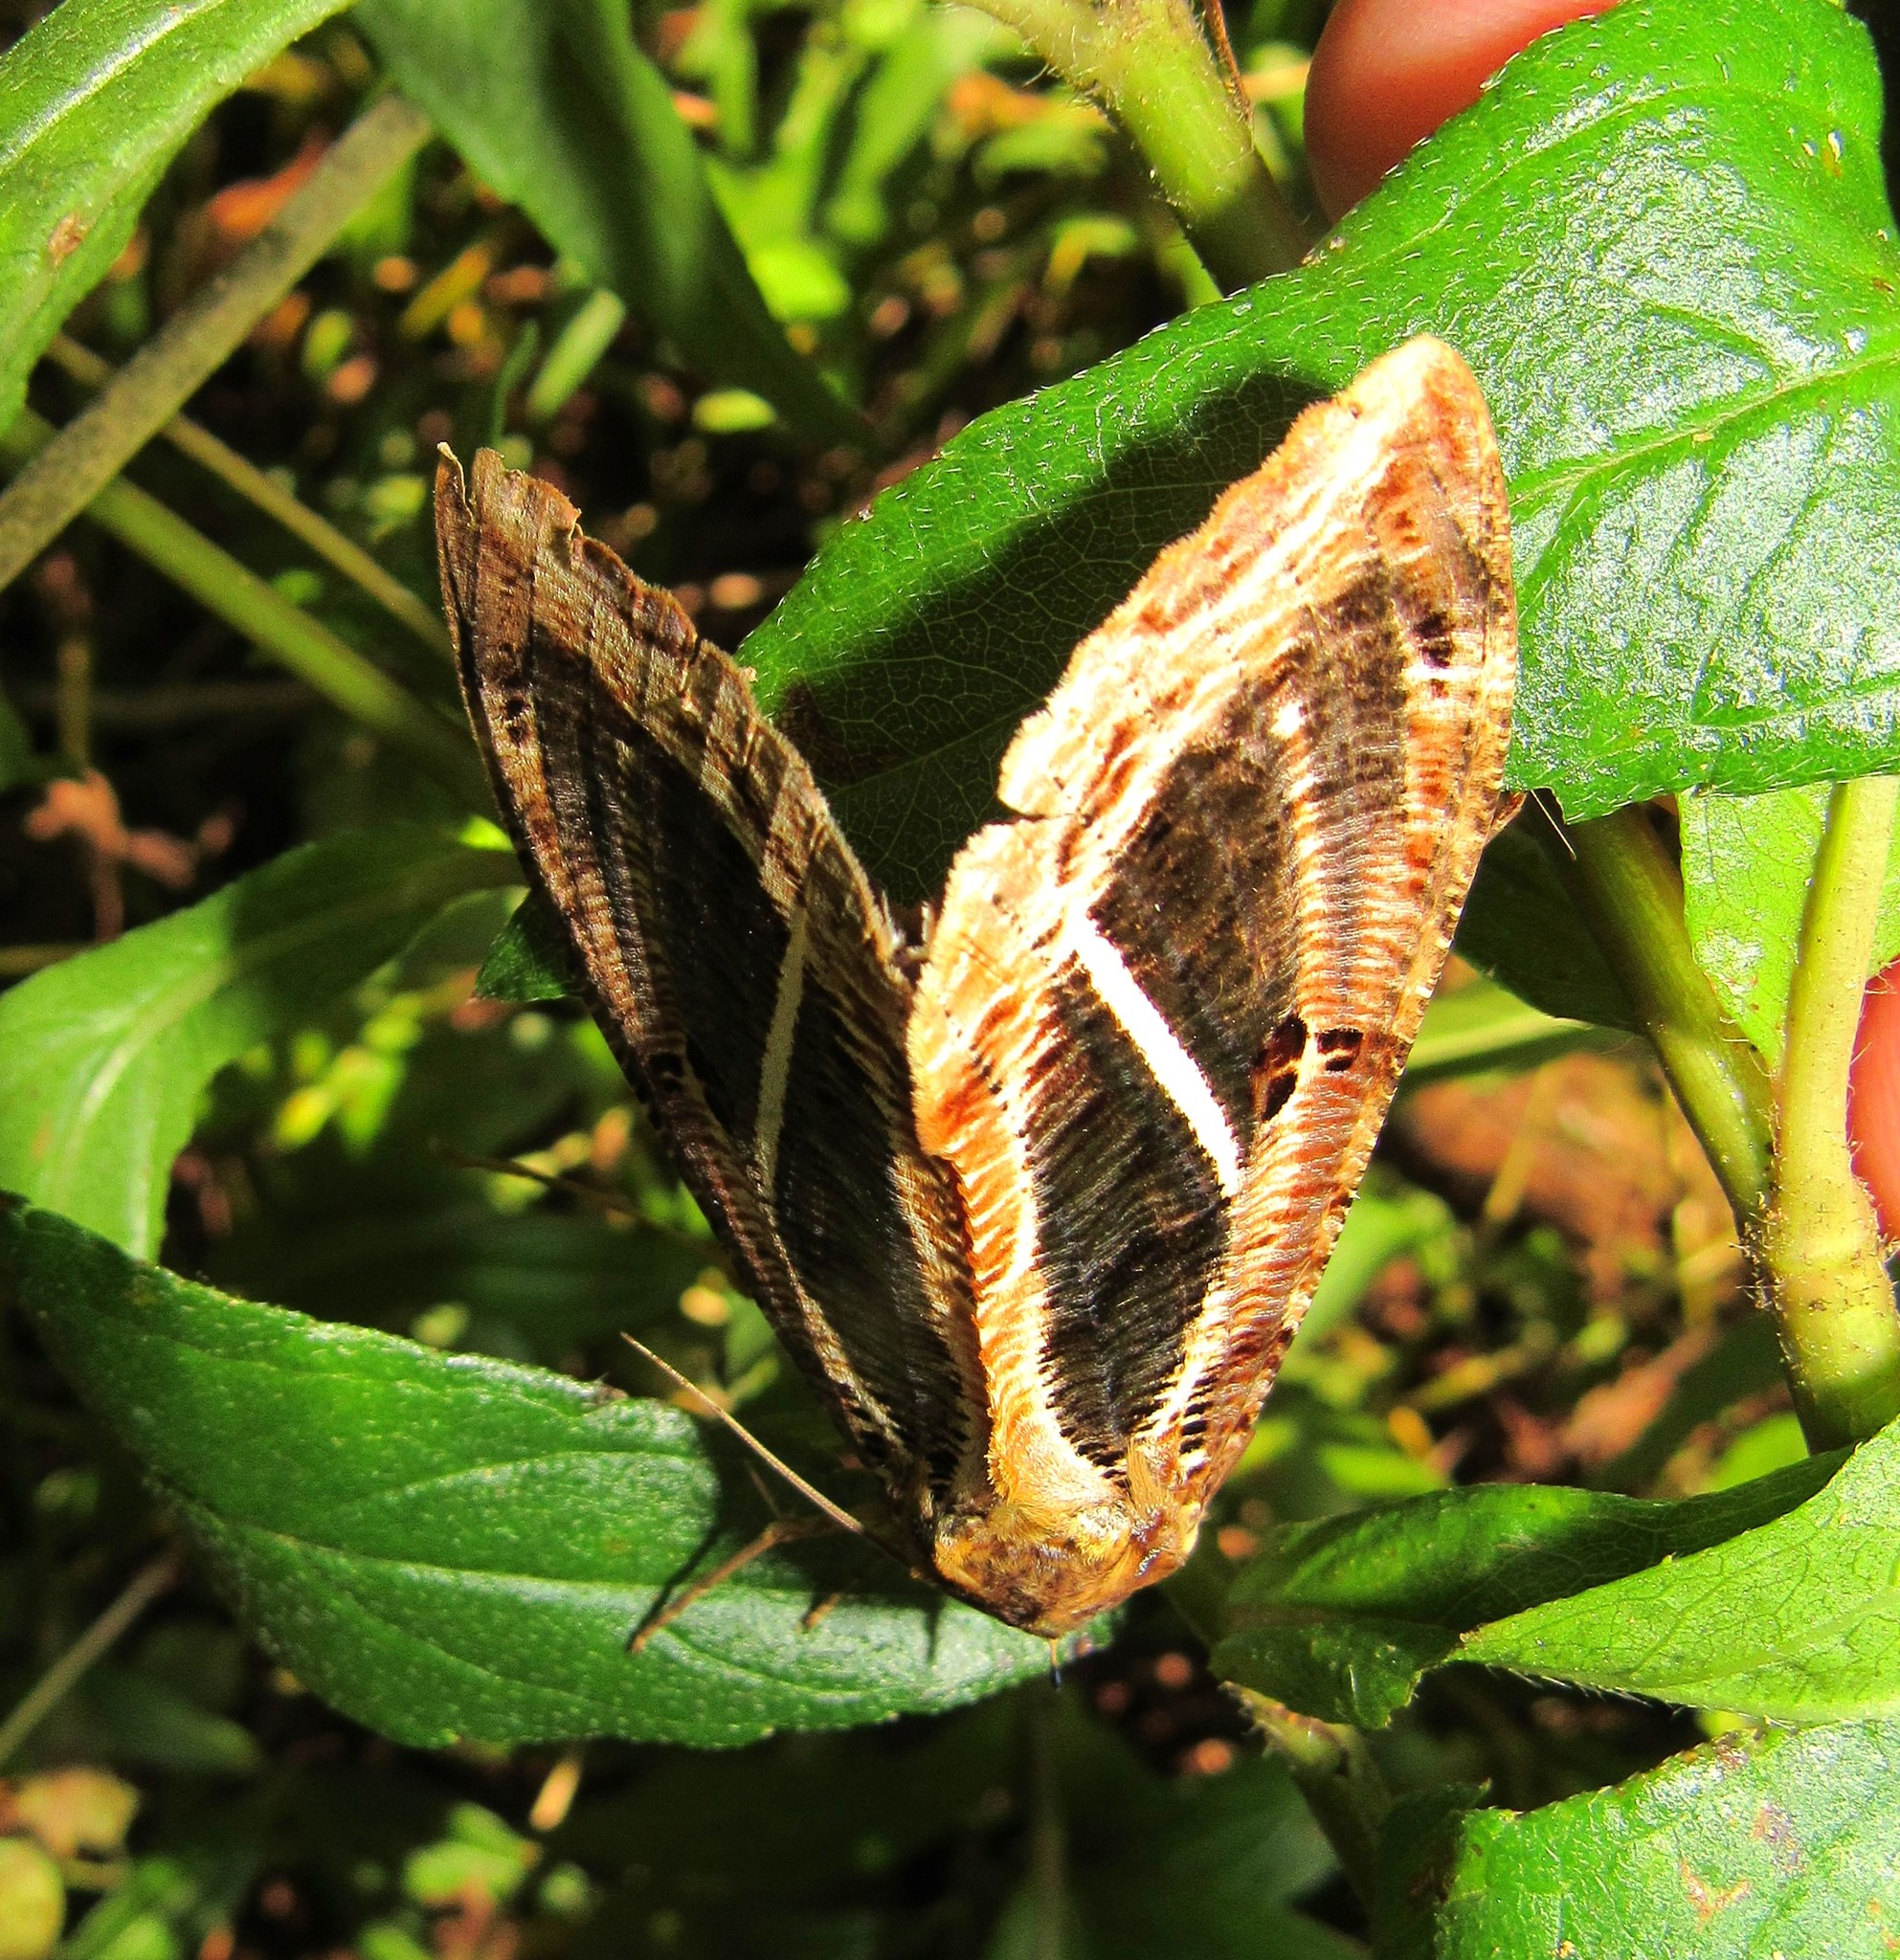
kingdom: Animalia
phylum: Arthropoda
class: Insecta
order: Lepidoptera
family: Erebidae
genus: Eudocima
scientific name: Eudocima apta
